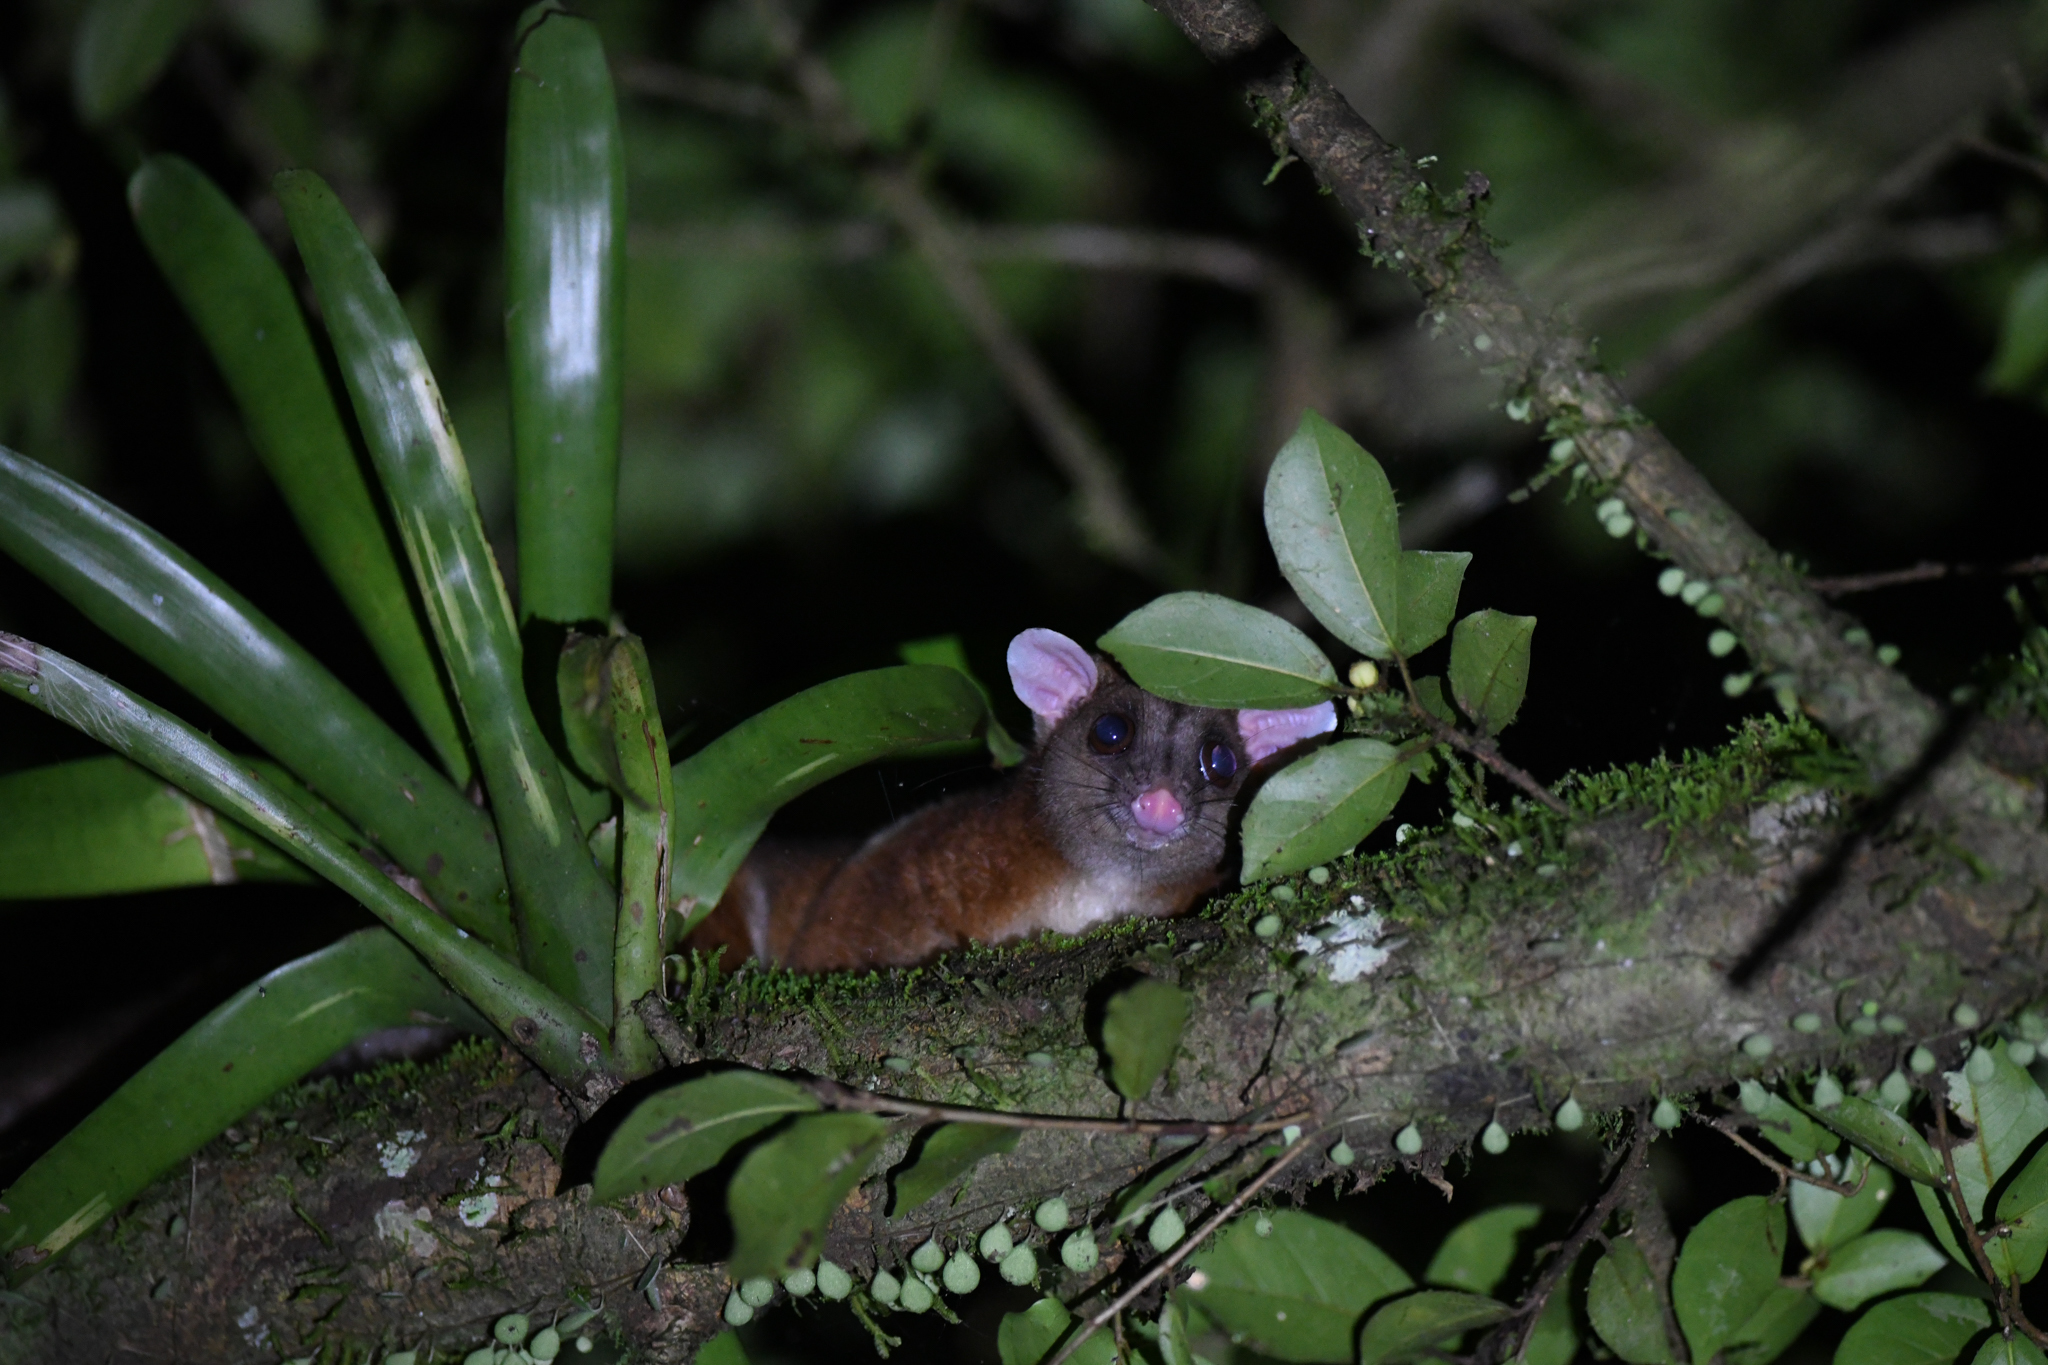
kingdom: Animalia
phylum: Chordata
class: Mammalia
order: Didelphimorphia
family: Didelphidae
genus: Caluromys
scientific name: Caluromys derbianus
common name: Derby's woolly opossum
